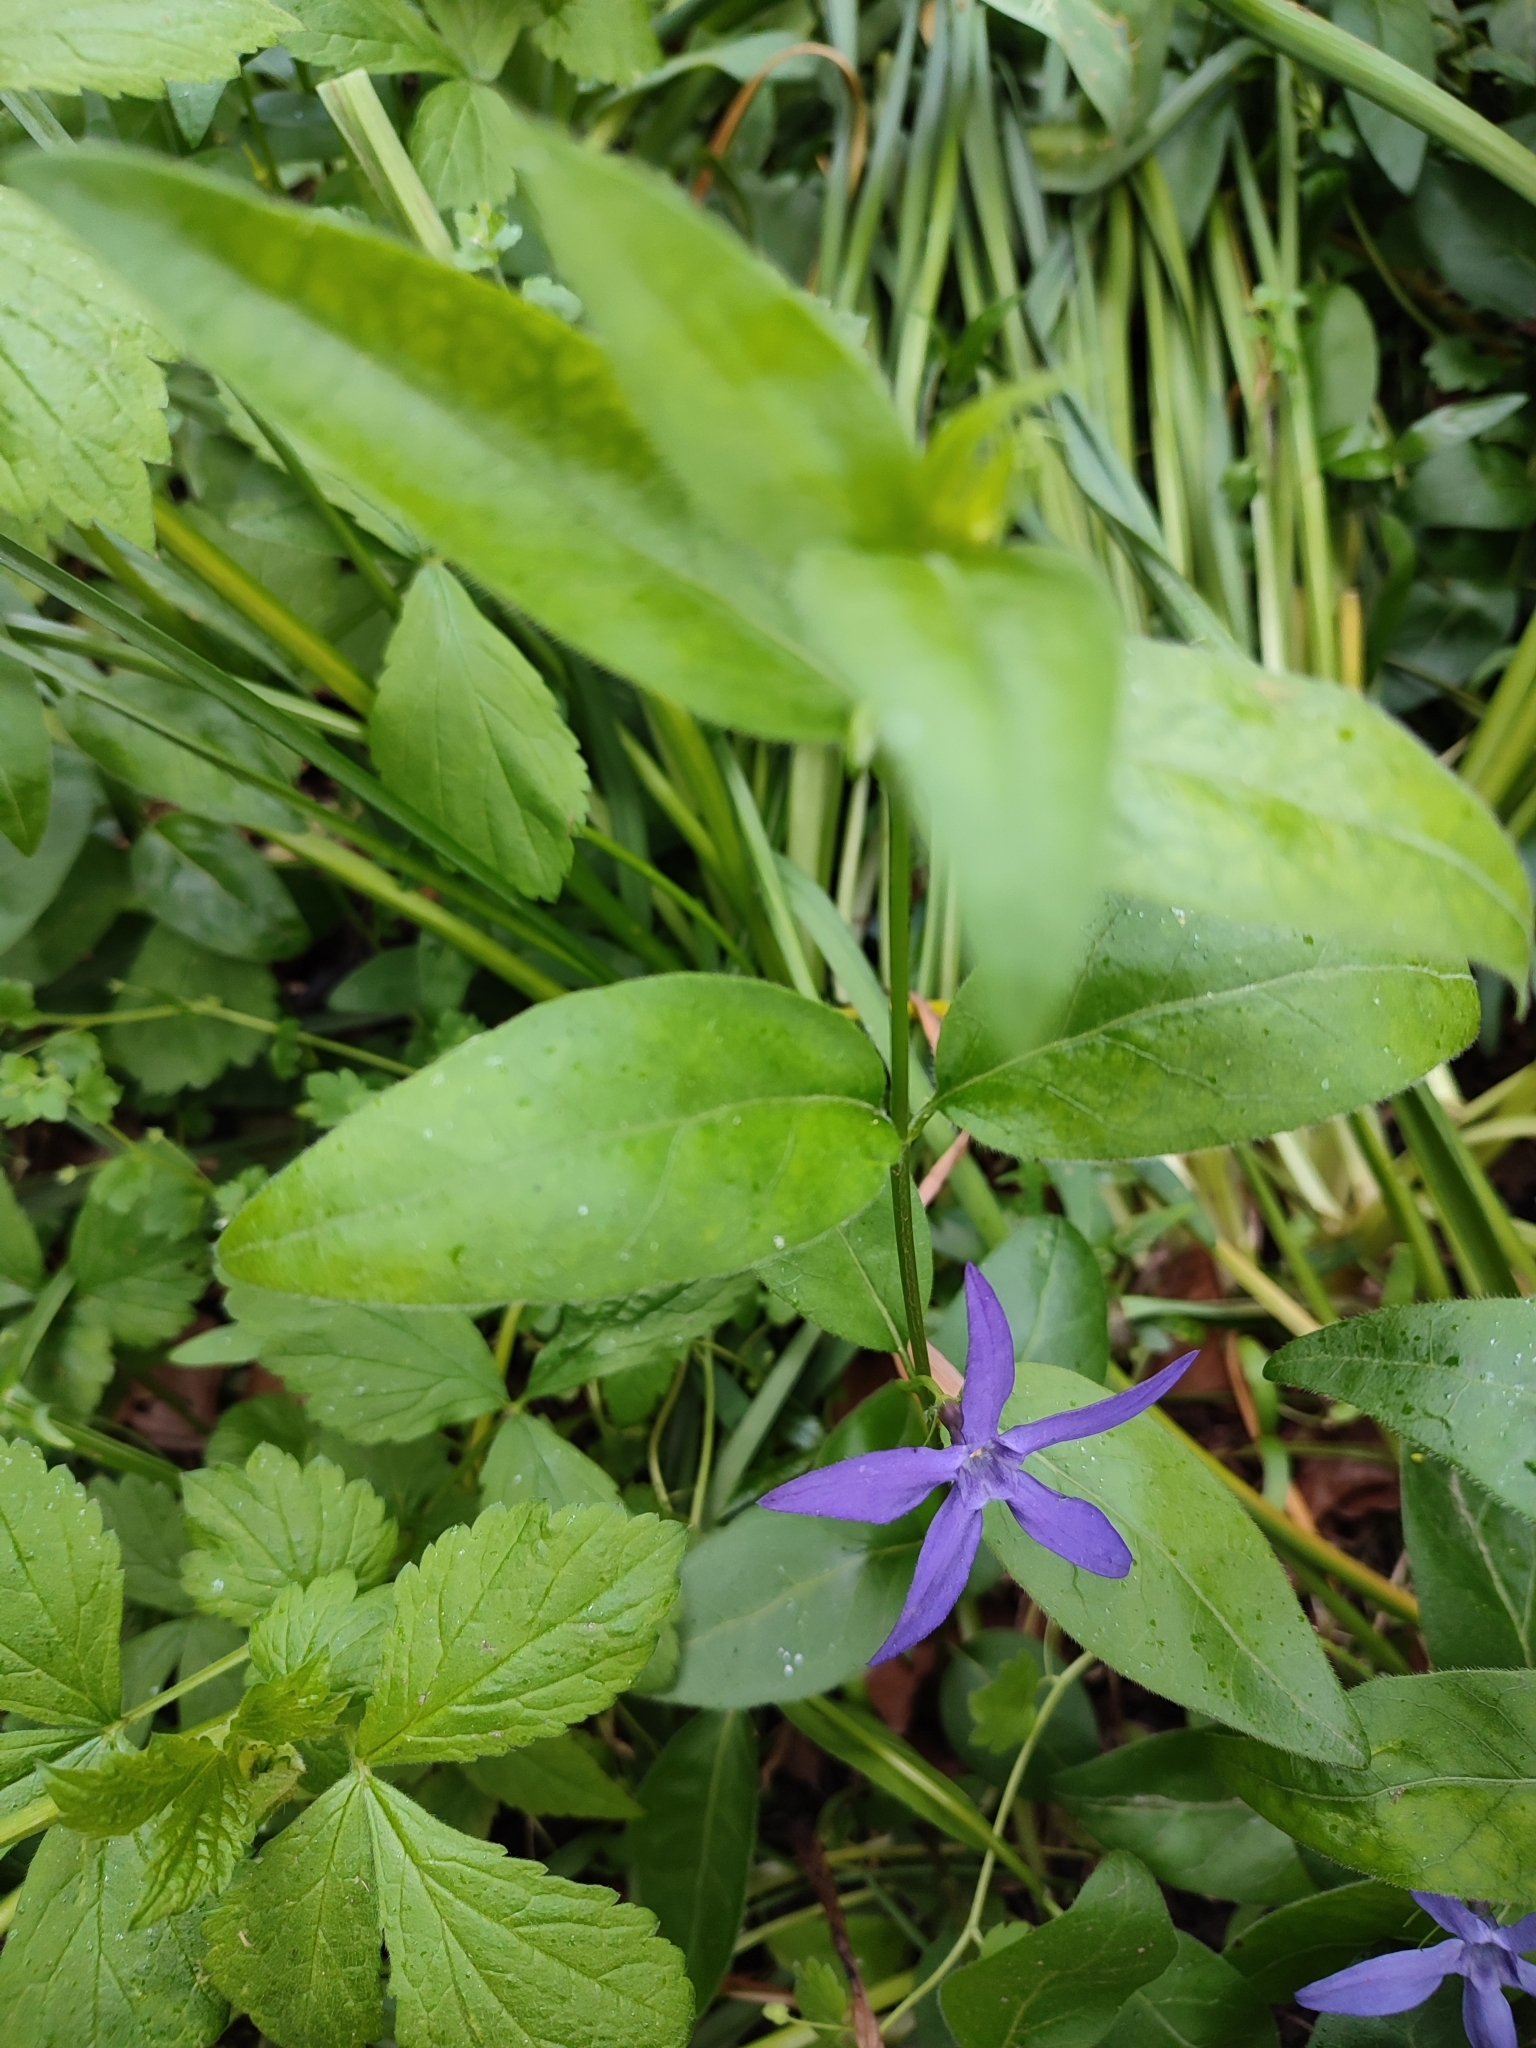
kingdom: Plantae
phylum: Tracheophyta
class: Magnoliopsida
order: Gentianales
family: Apocynaceae
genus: Vinca
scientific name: Vinca major
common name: Greater periwinkle
